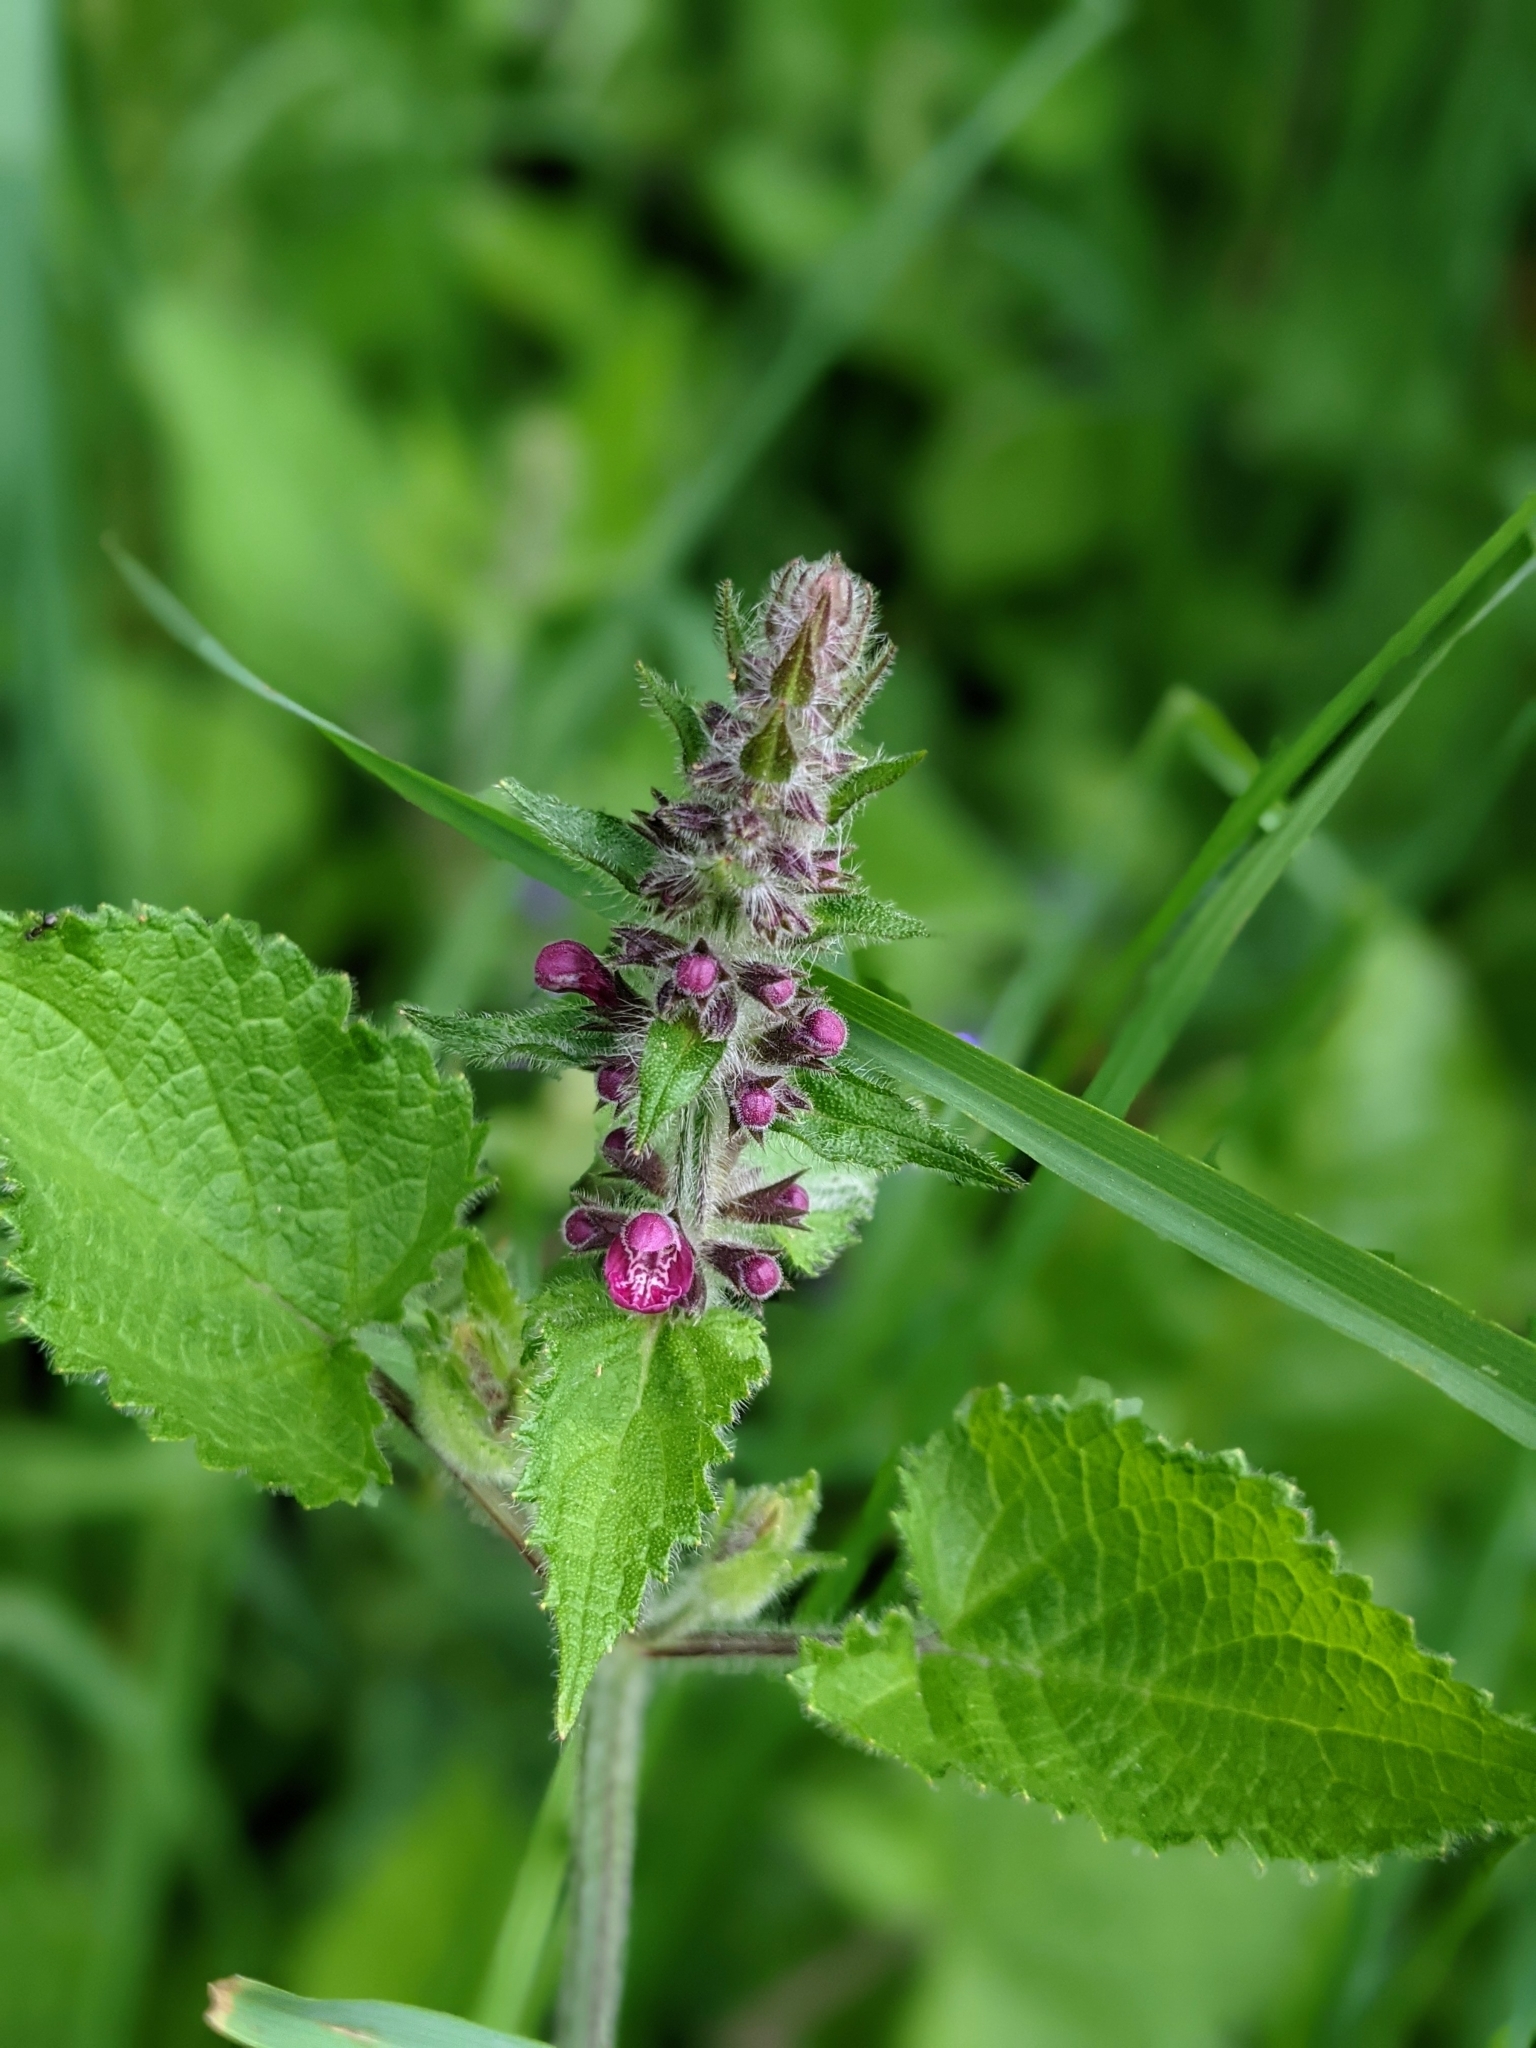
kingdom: Plantae
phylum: Tracheophyta
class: Magnoliopsida
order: Lamiales
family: Lamiaceae
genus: Stachys
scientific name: Stachys sylvatica
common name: Hedge woundwort
